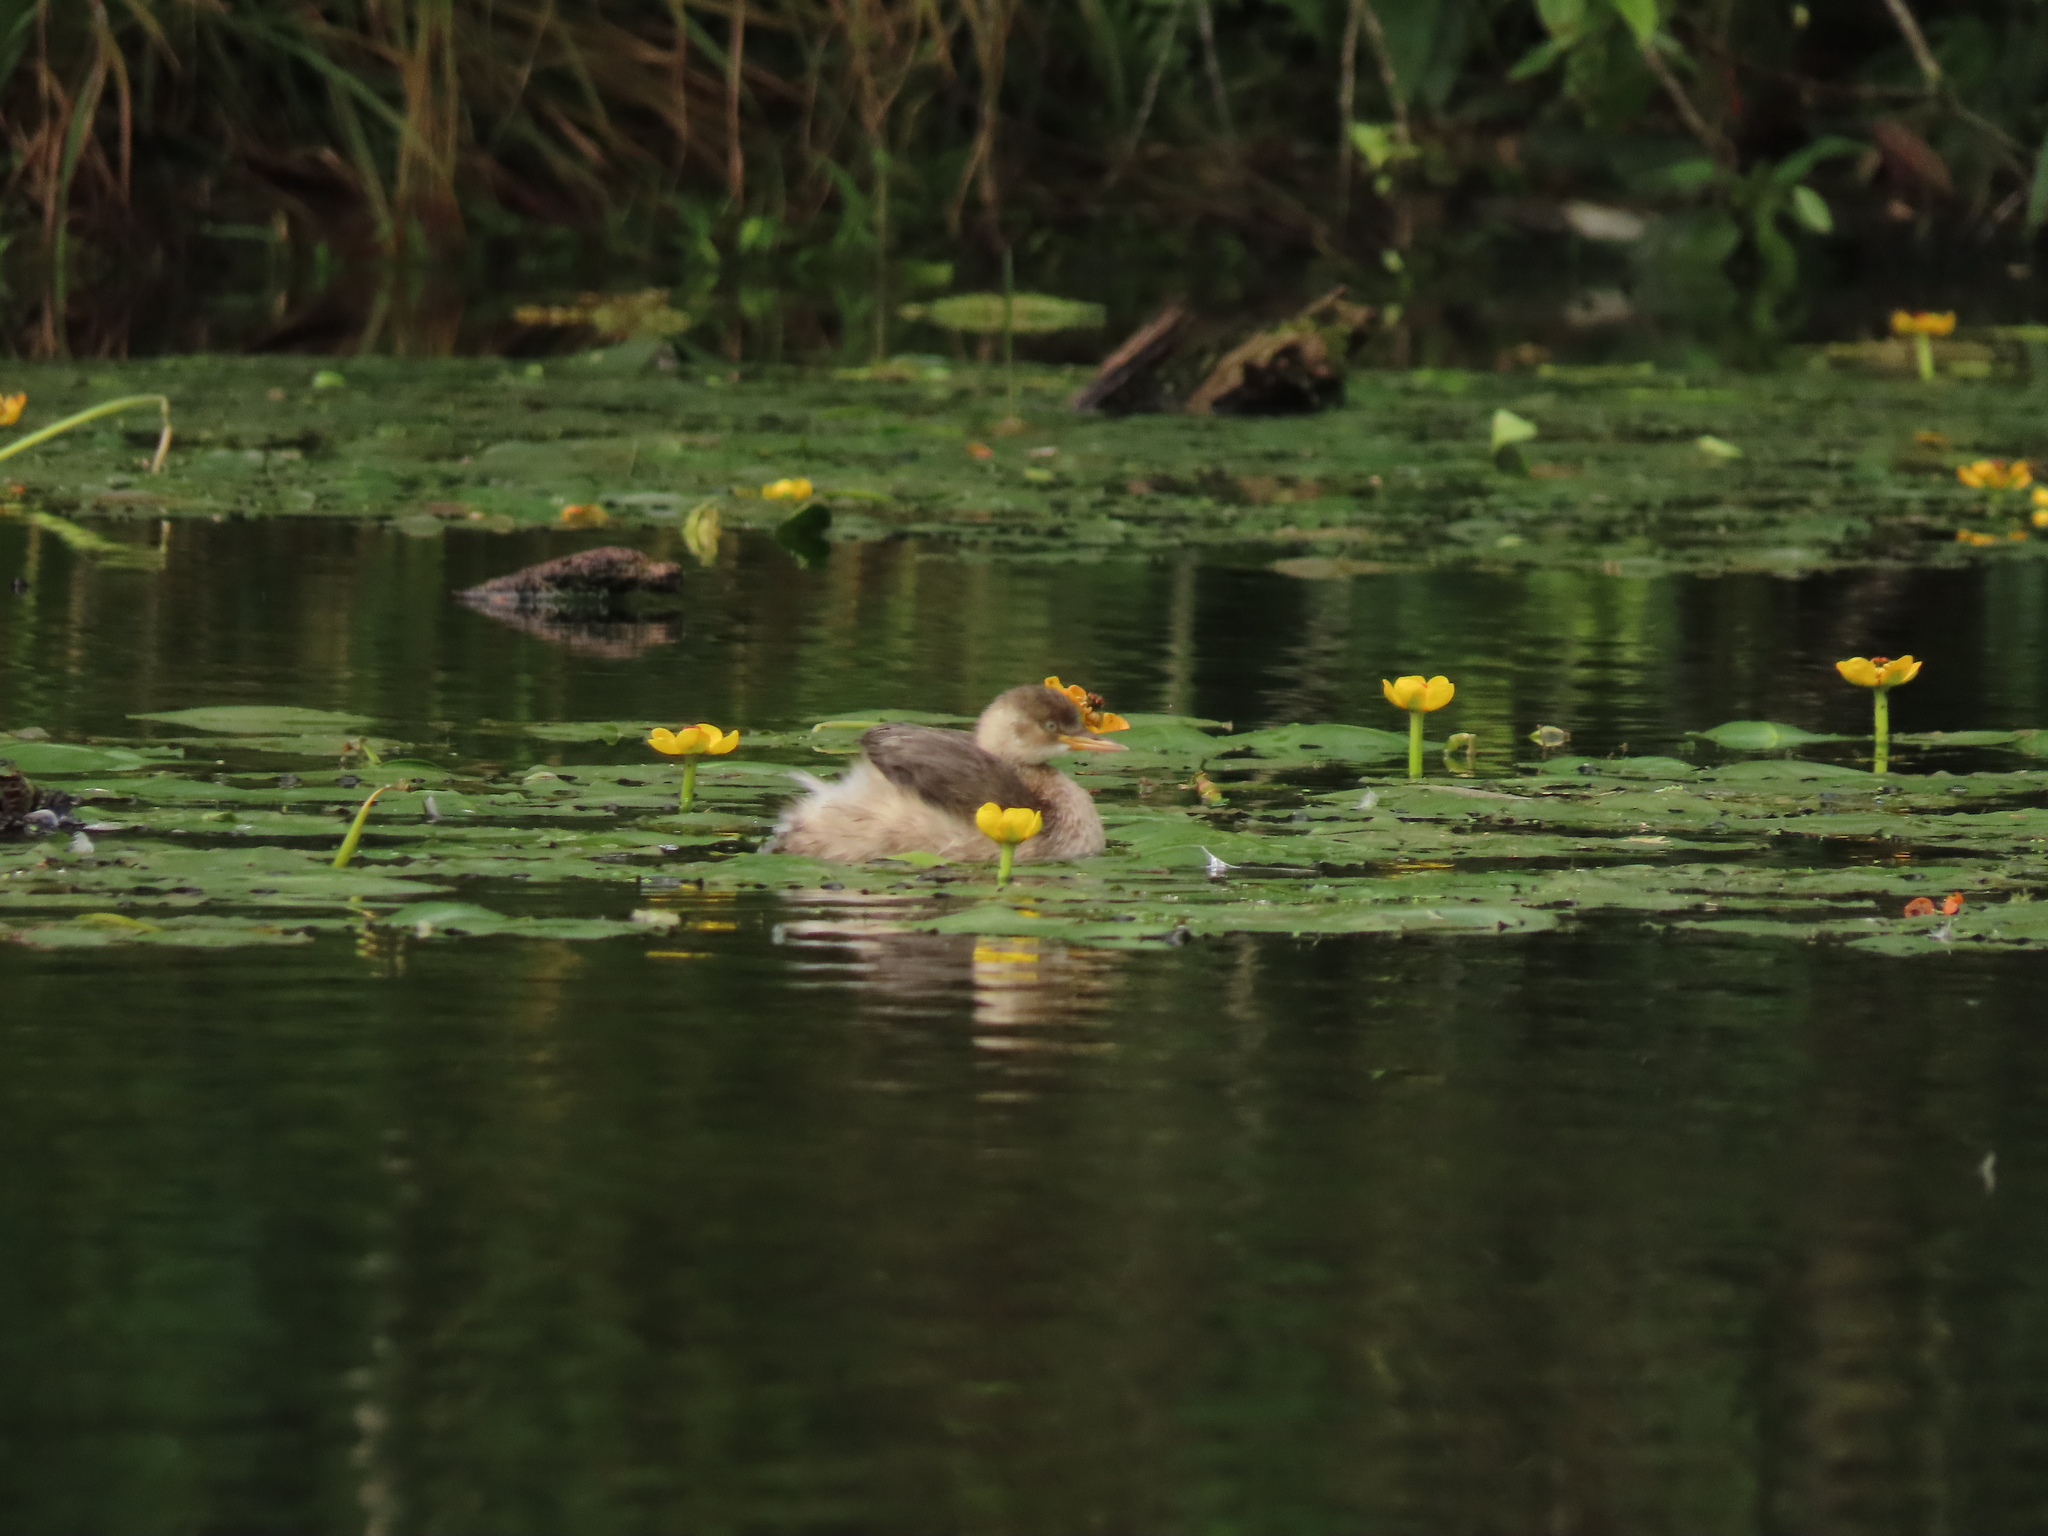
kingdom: Animalia
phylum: Chordata
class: Aves
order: Podicipediformes
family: Podicipedidae
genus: Tachybaptus
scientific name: Tachybaptus ruficollis
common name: Little grebe
